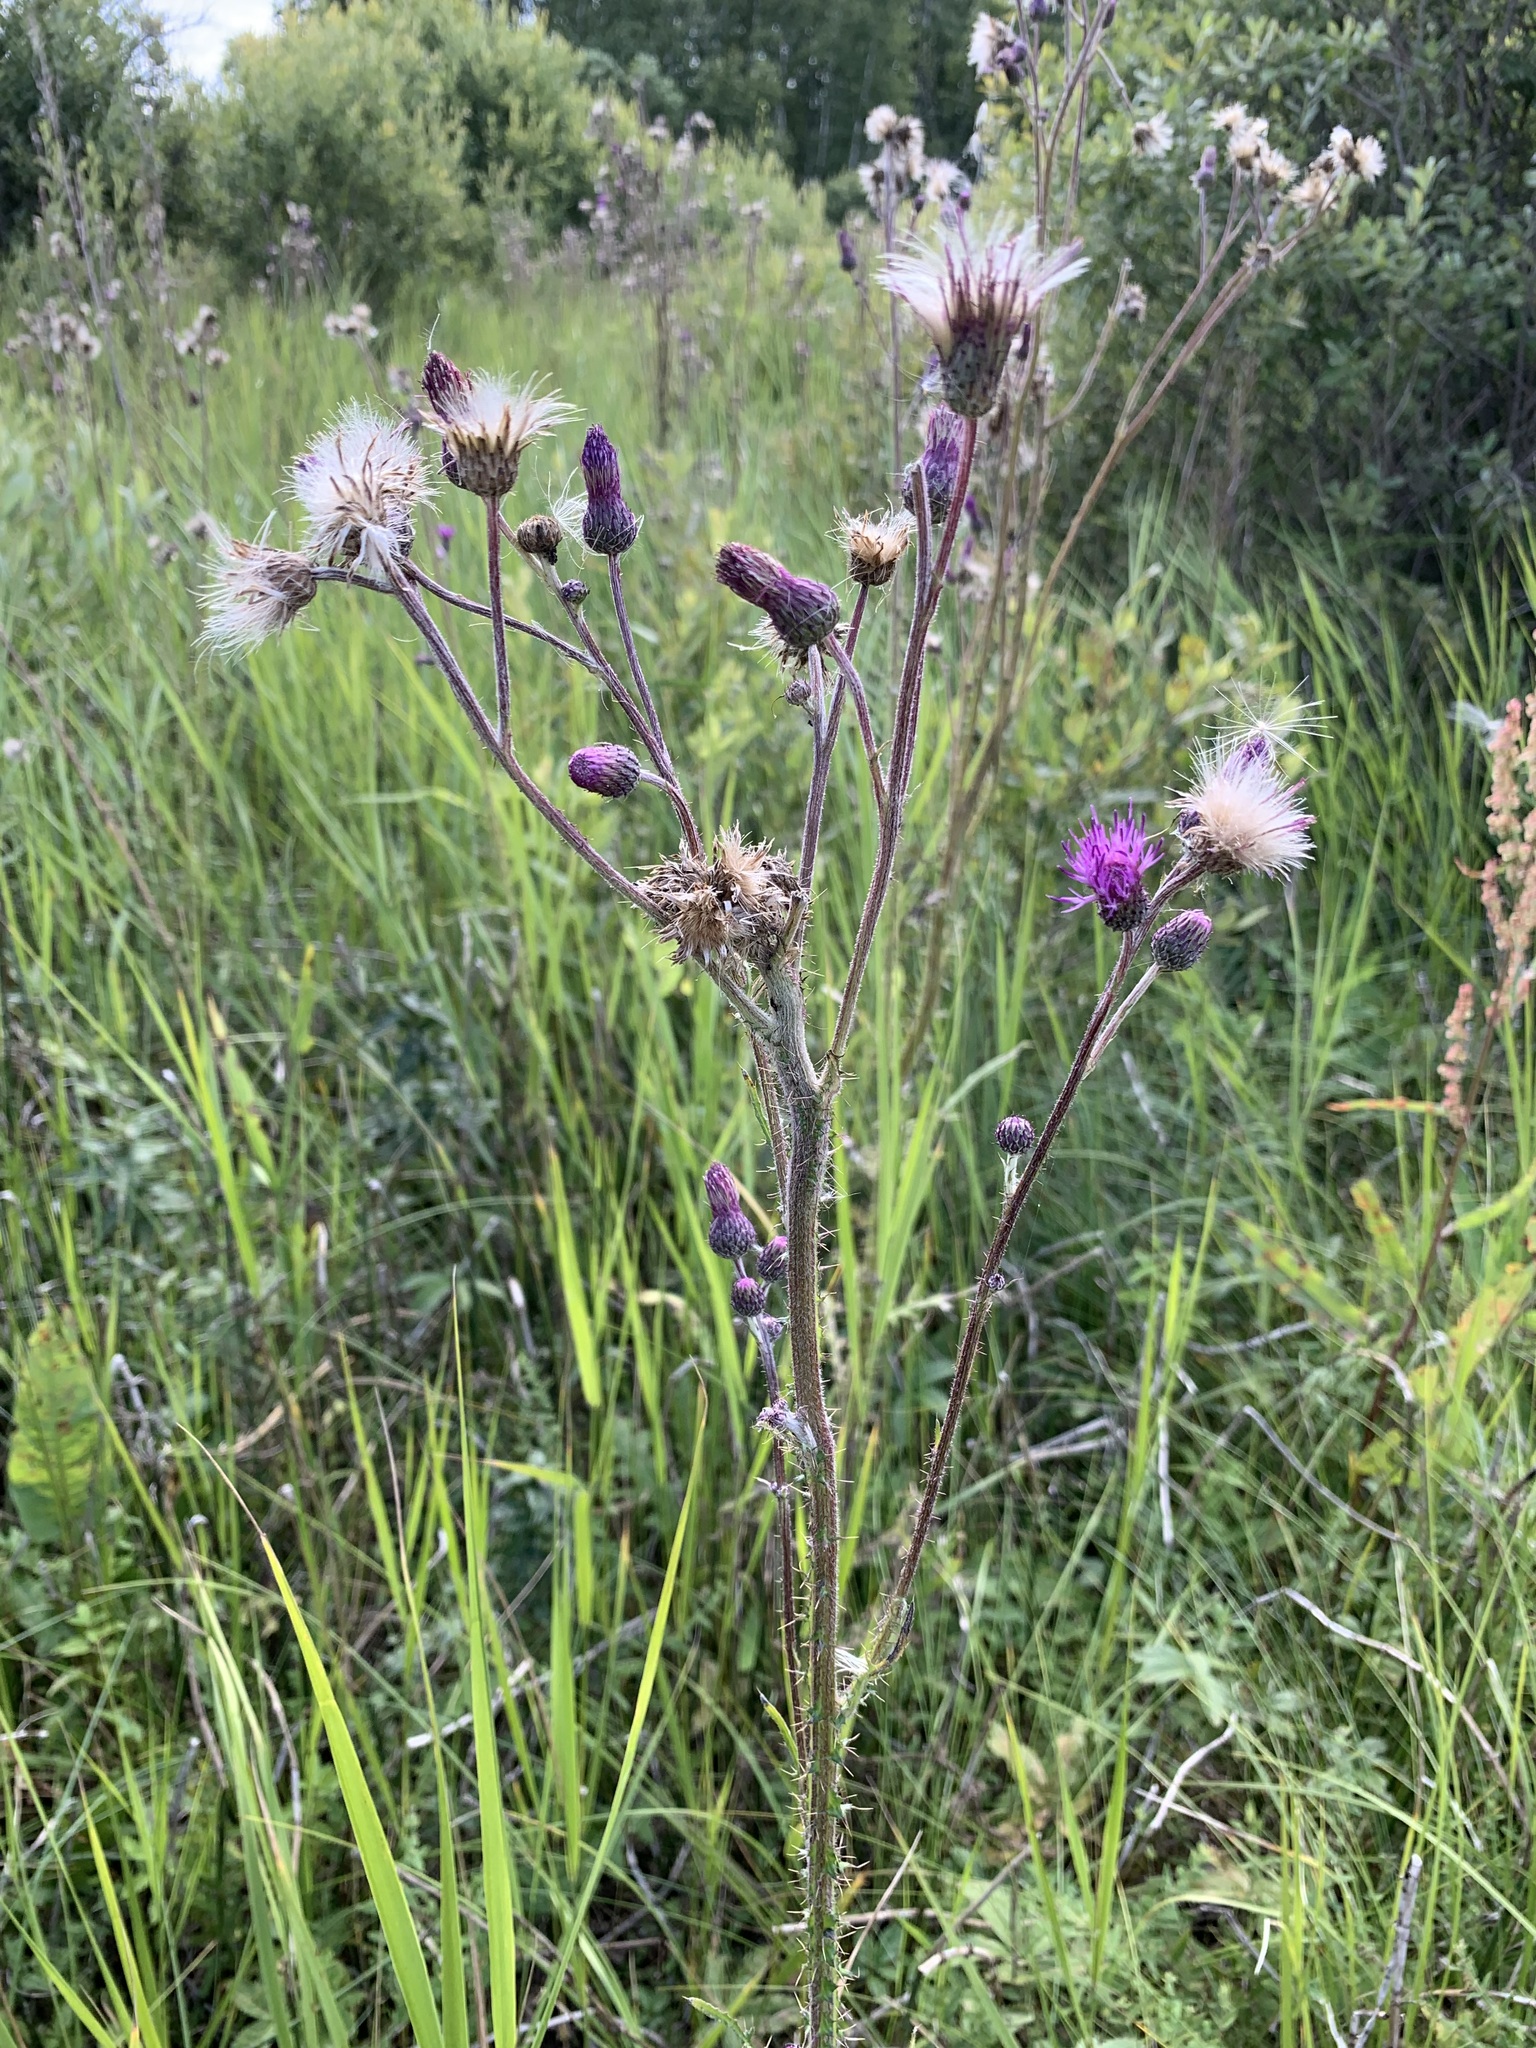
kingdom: Plantae
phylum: Tracheophyta
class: Magnoliopsida
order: Asterales
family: Asteraceae
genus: Cirsium
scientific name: Cirsium palustre
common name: Marsh thistle
